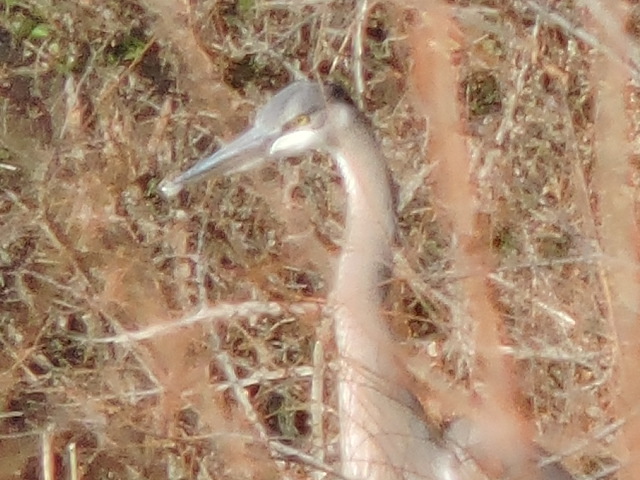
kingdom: Animalia
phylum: Chordata
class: Aves
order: Pelecaniformes
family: Ardeidae
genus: Ardea
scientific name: Ardea herodias
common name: Great blue heron
